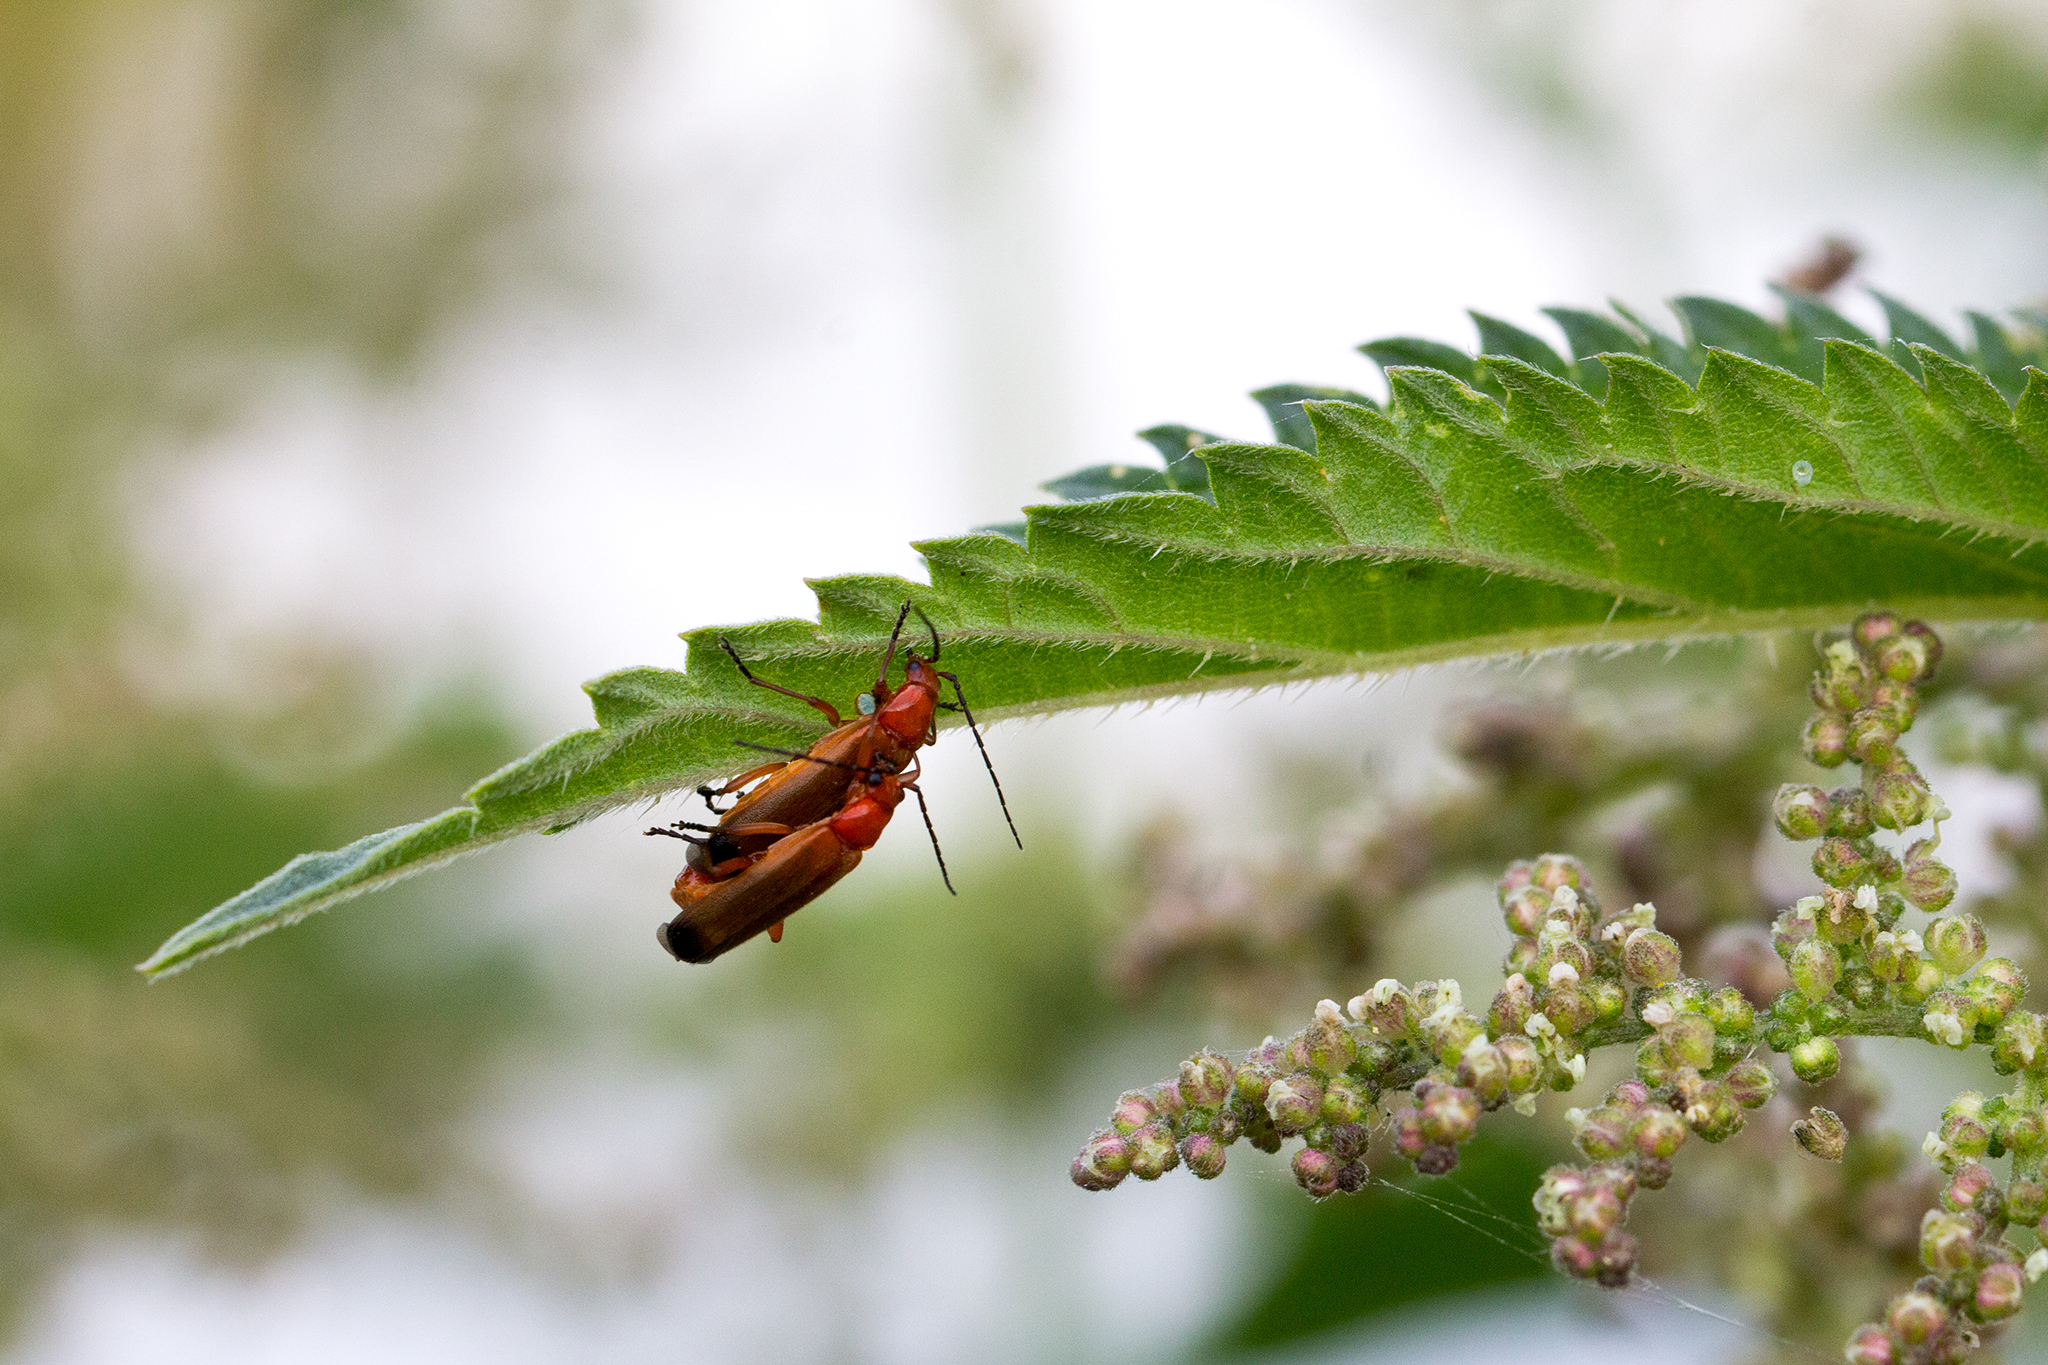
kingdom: Animalia
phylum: Arthropoda
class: Insecta
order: Coleoptera
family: Cantharidae
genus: Rhagonycha
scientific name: Rhagonycha fulva
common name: Common red soldier beetle
